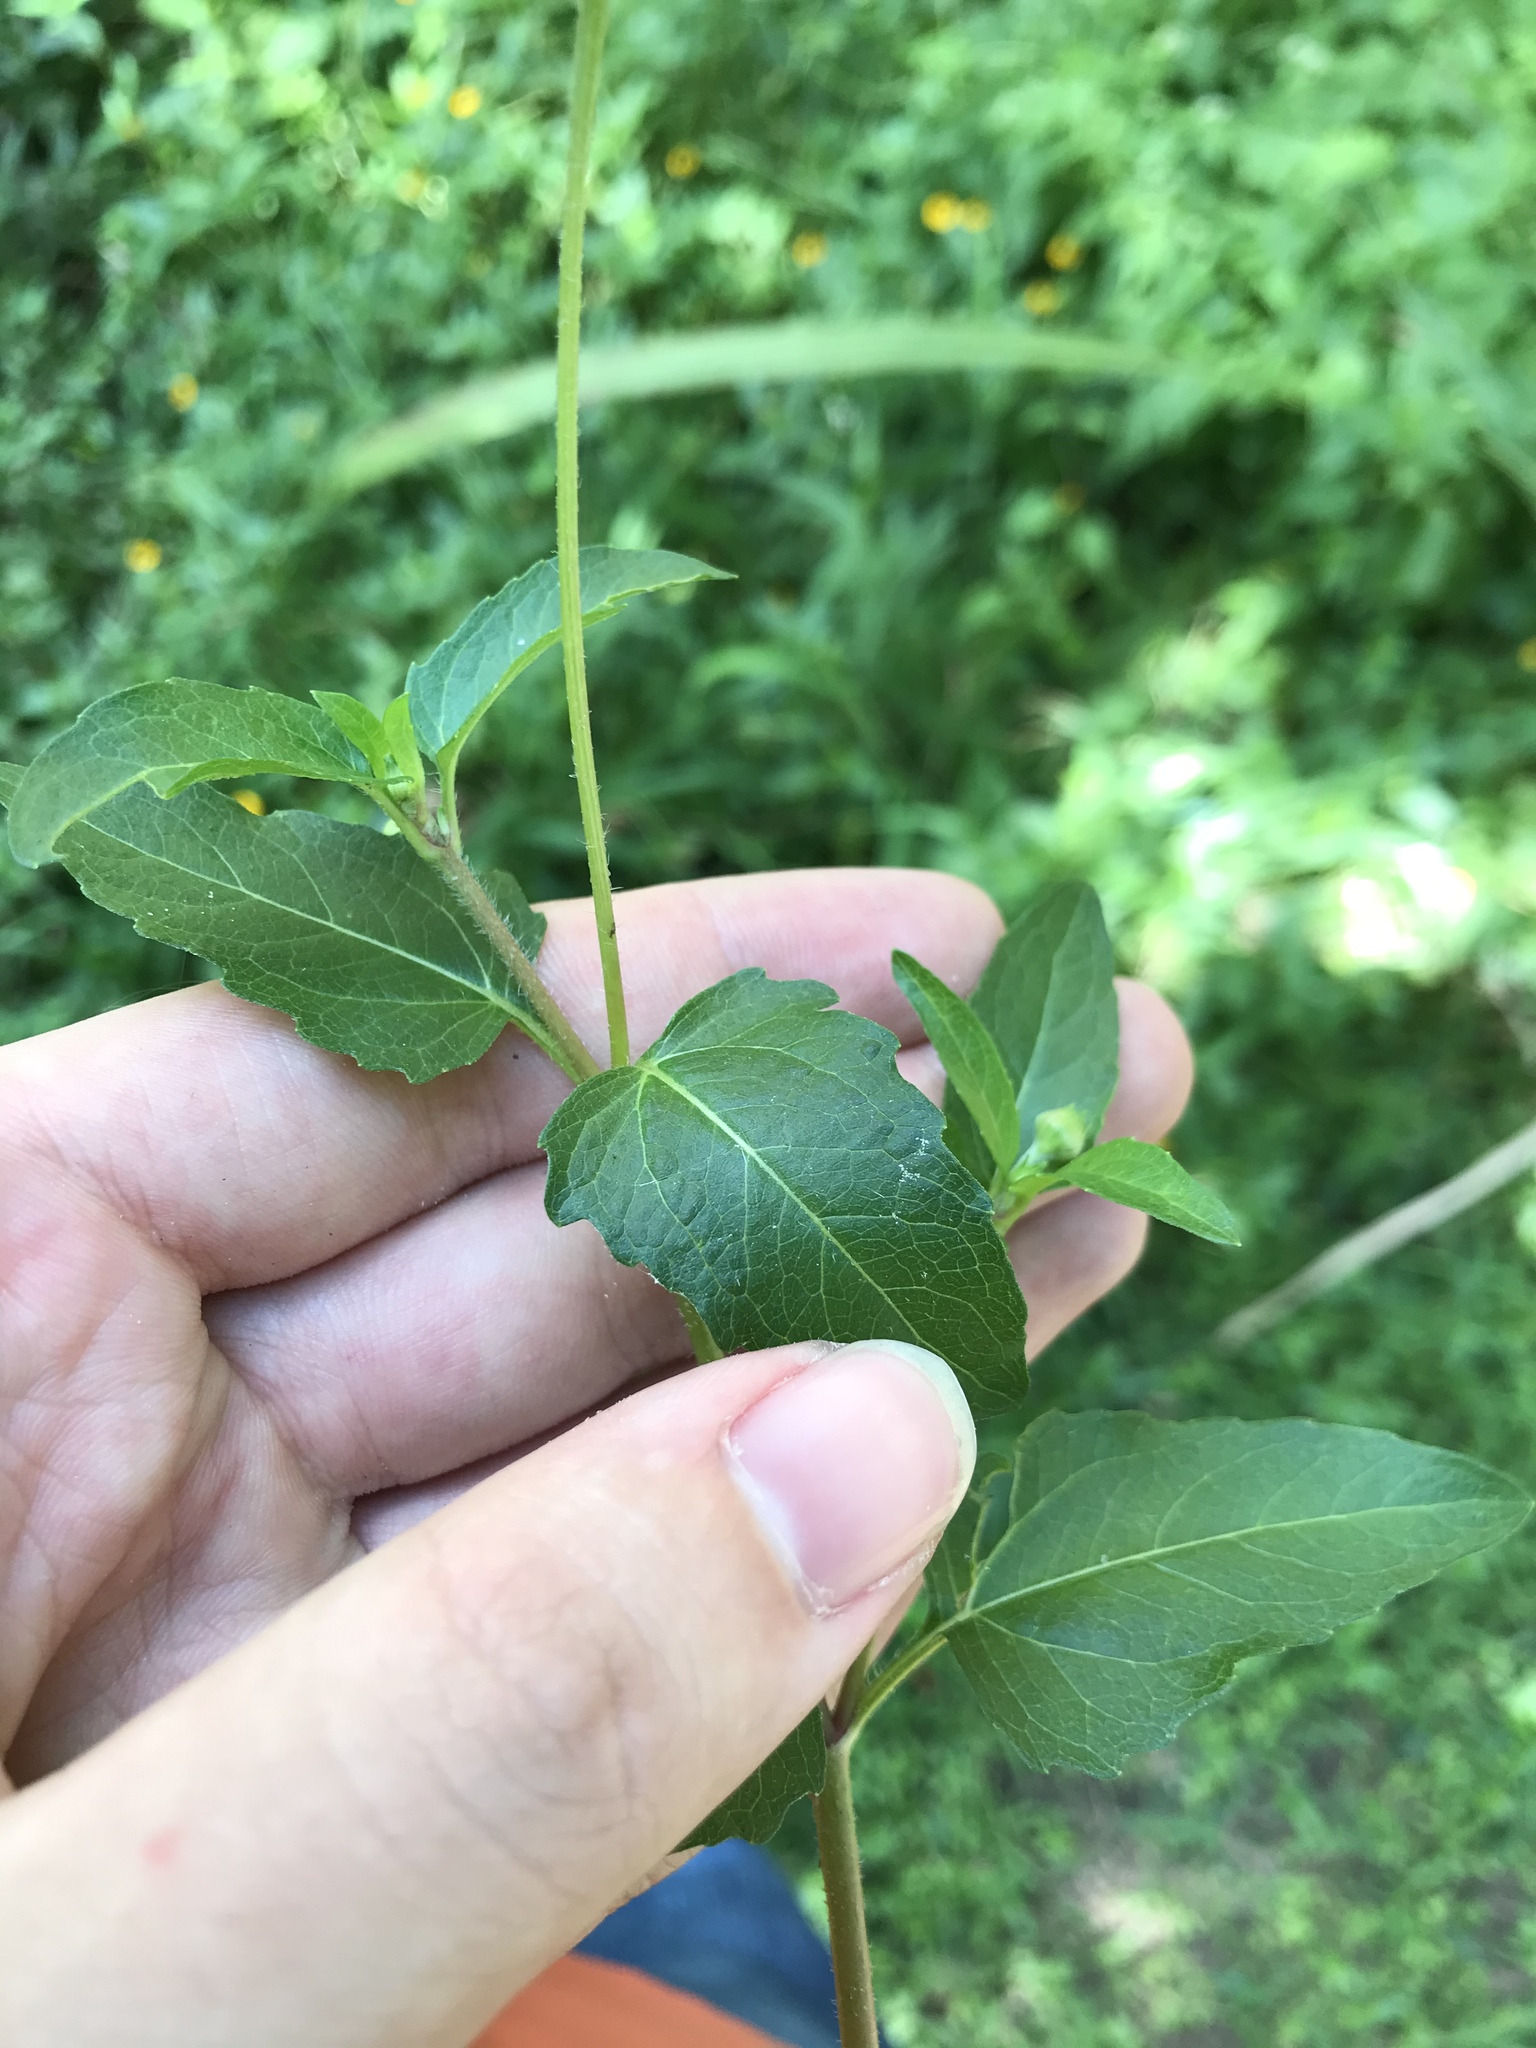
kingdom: Plantae
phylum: Tracheophyta
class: Magnoliopsida
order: Asterales
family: Asteraceae
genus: Acmella
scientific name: Acmella repens
